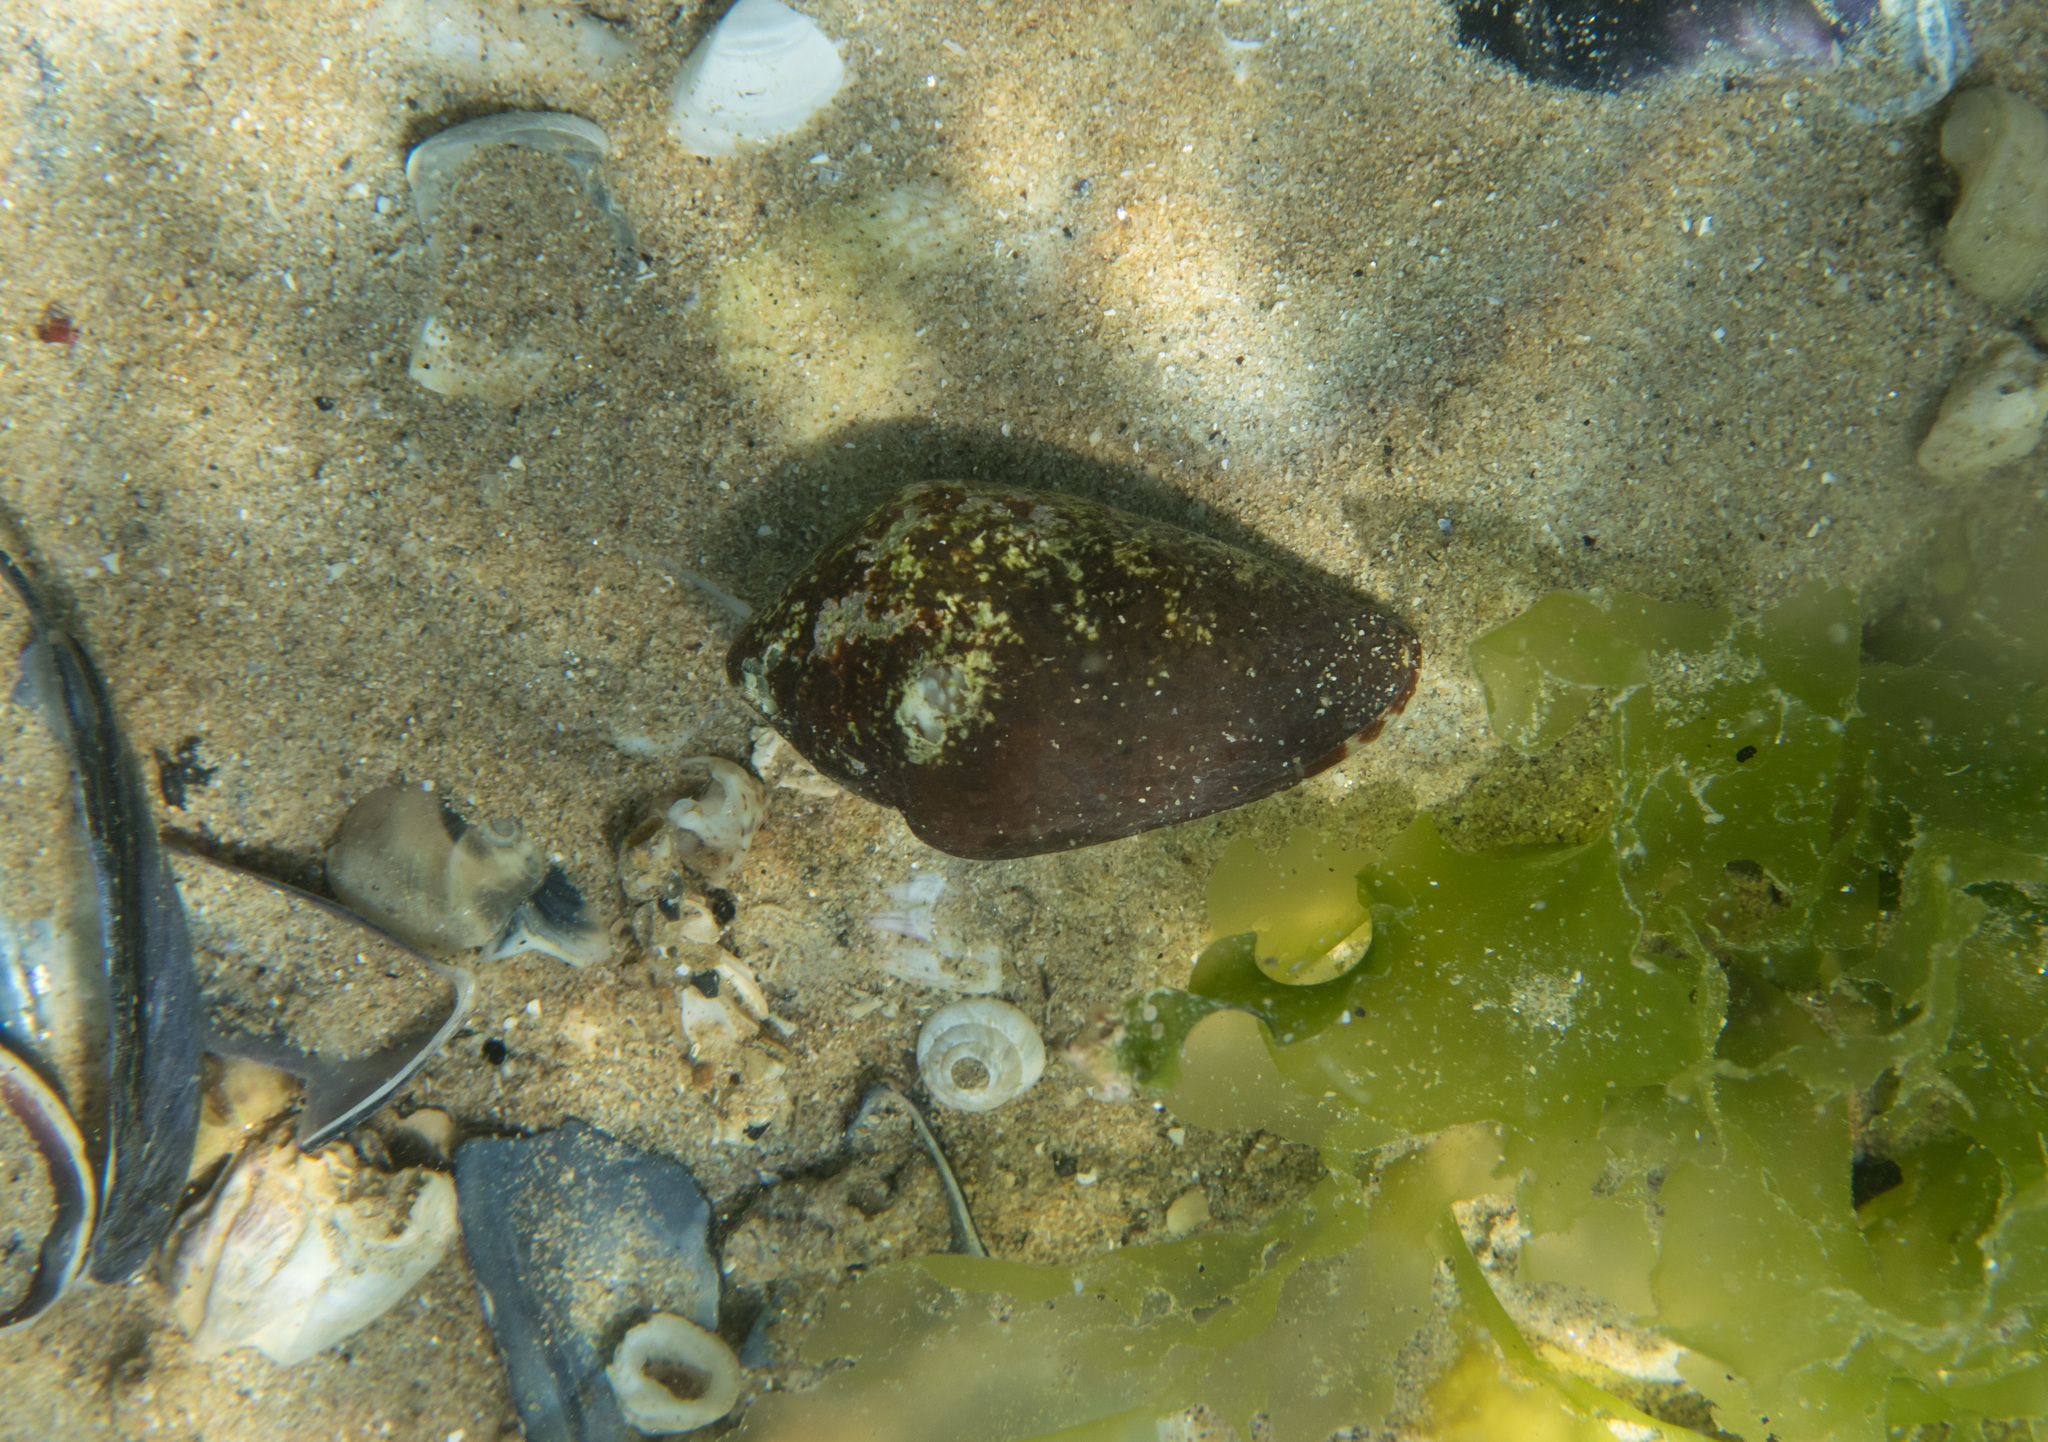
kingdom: Animalia
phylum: Mollusca
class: Gastropoda
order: Neogastropoda
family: Conidae
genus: Conus
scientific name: Conus ventricosus
